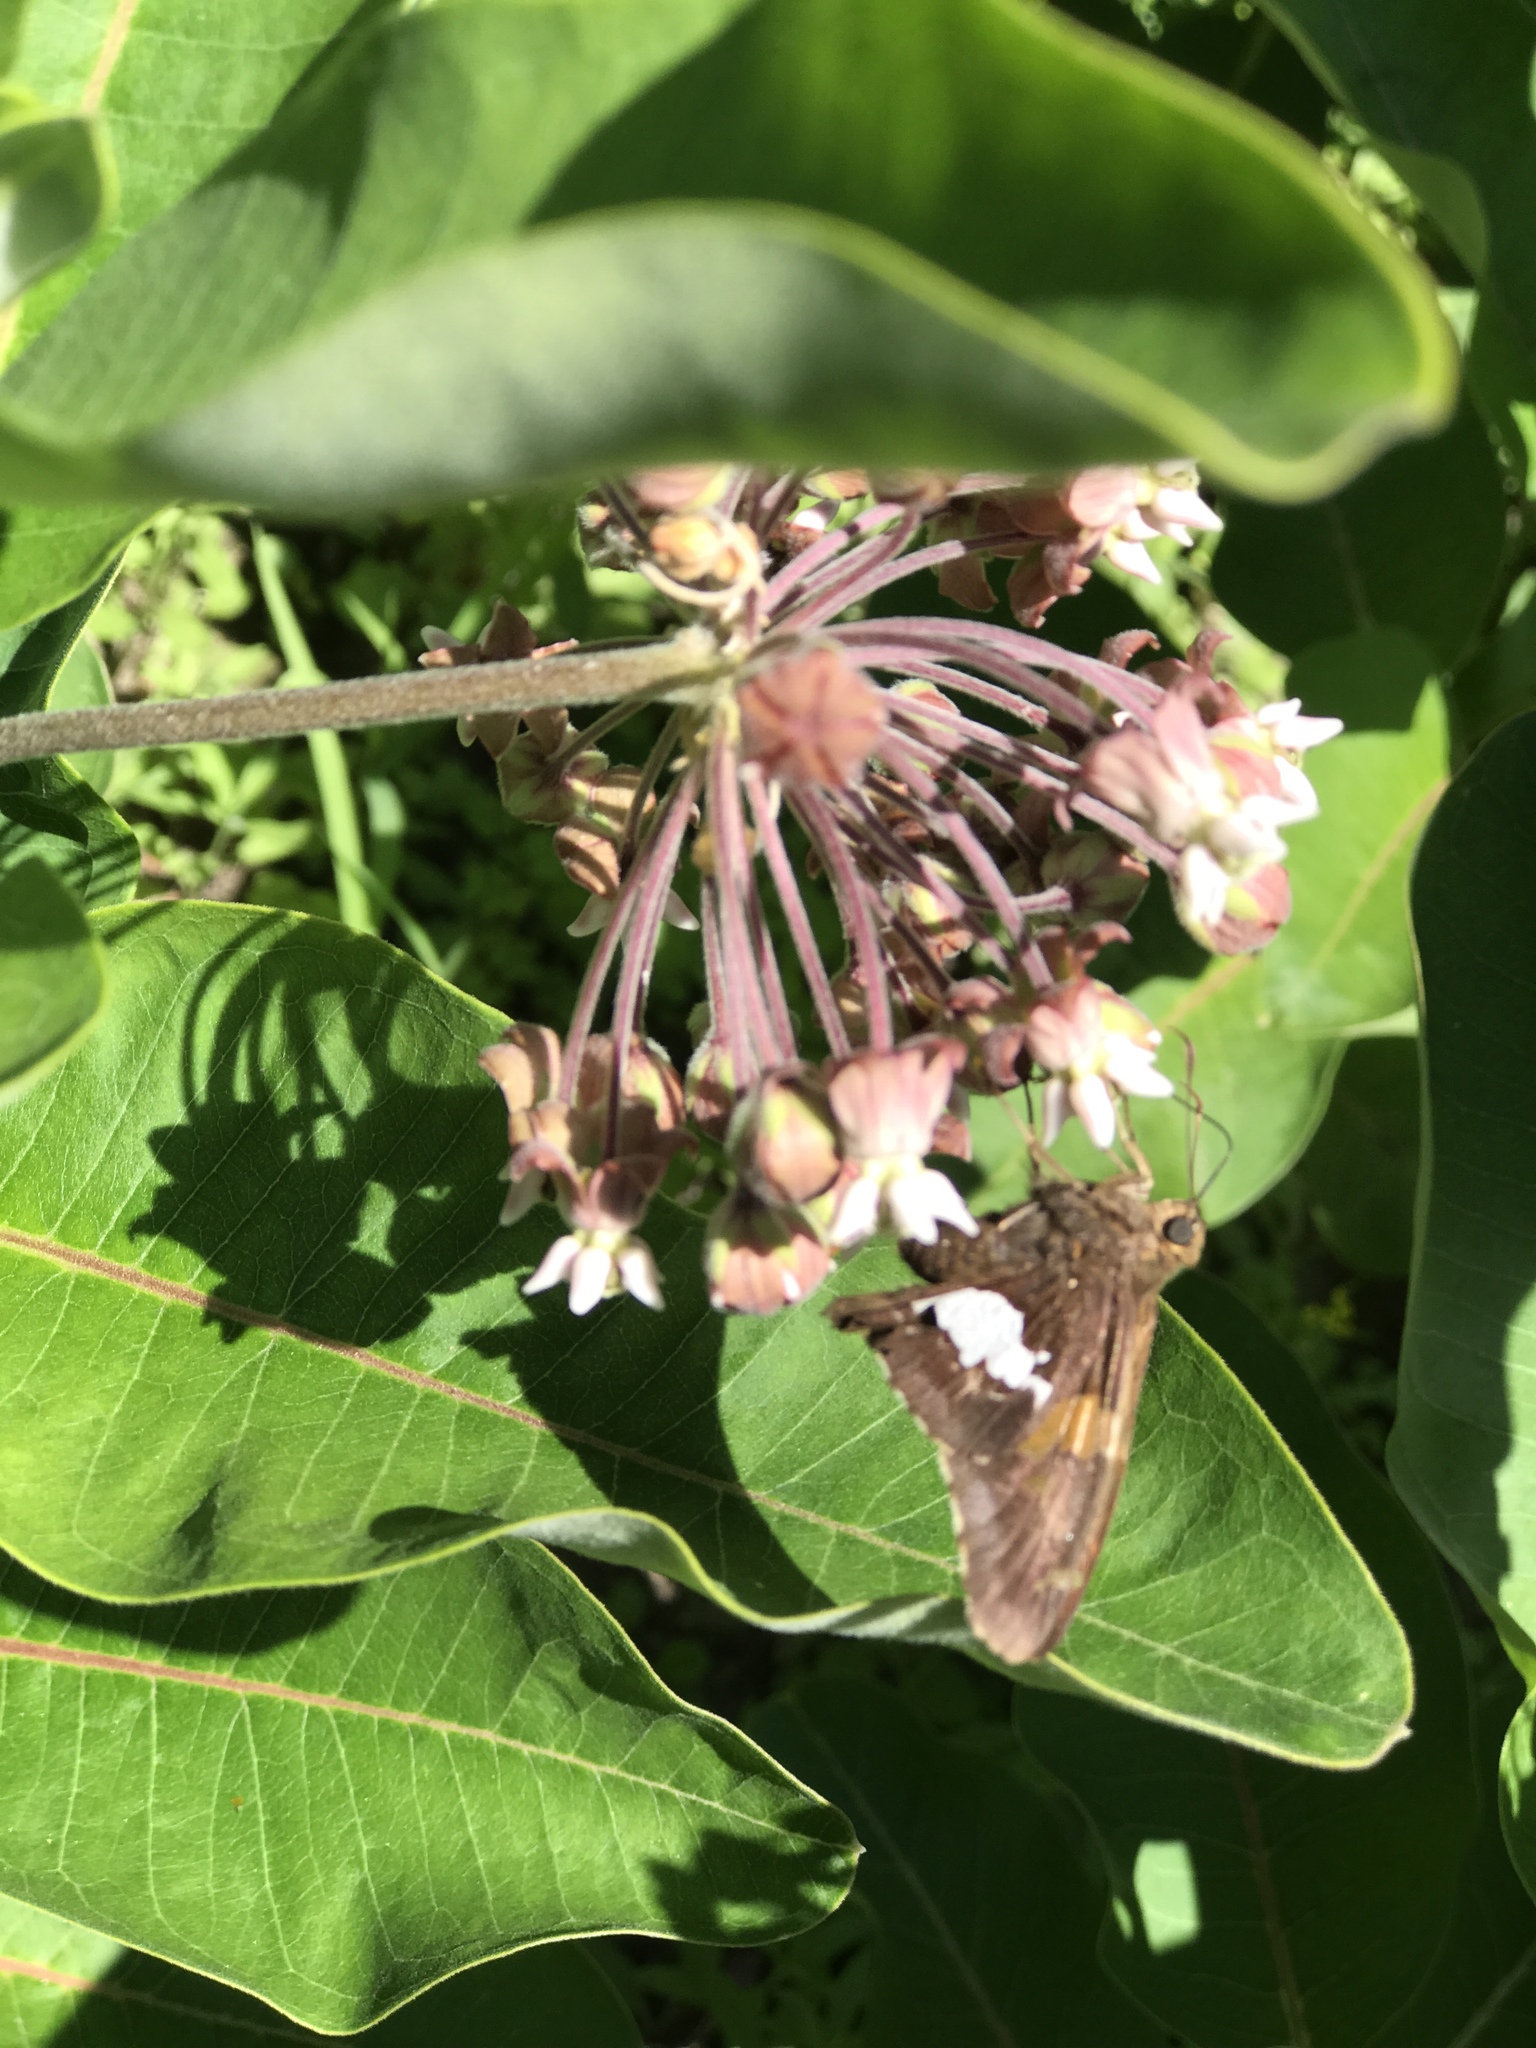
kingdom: Animalia
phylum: Arthropoda
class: Insecta
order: Lepidoptera
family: Hesperiidae
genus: Epargyreus
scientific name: Epargyreus clarus
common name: Silver-spotted skipper
